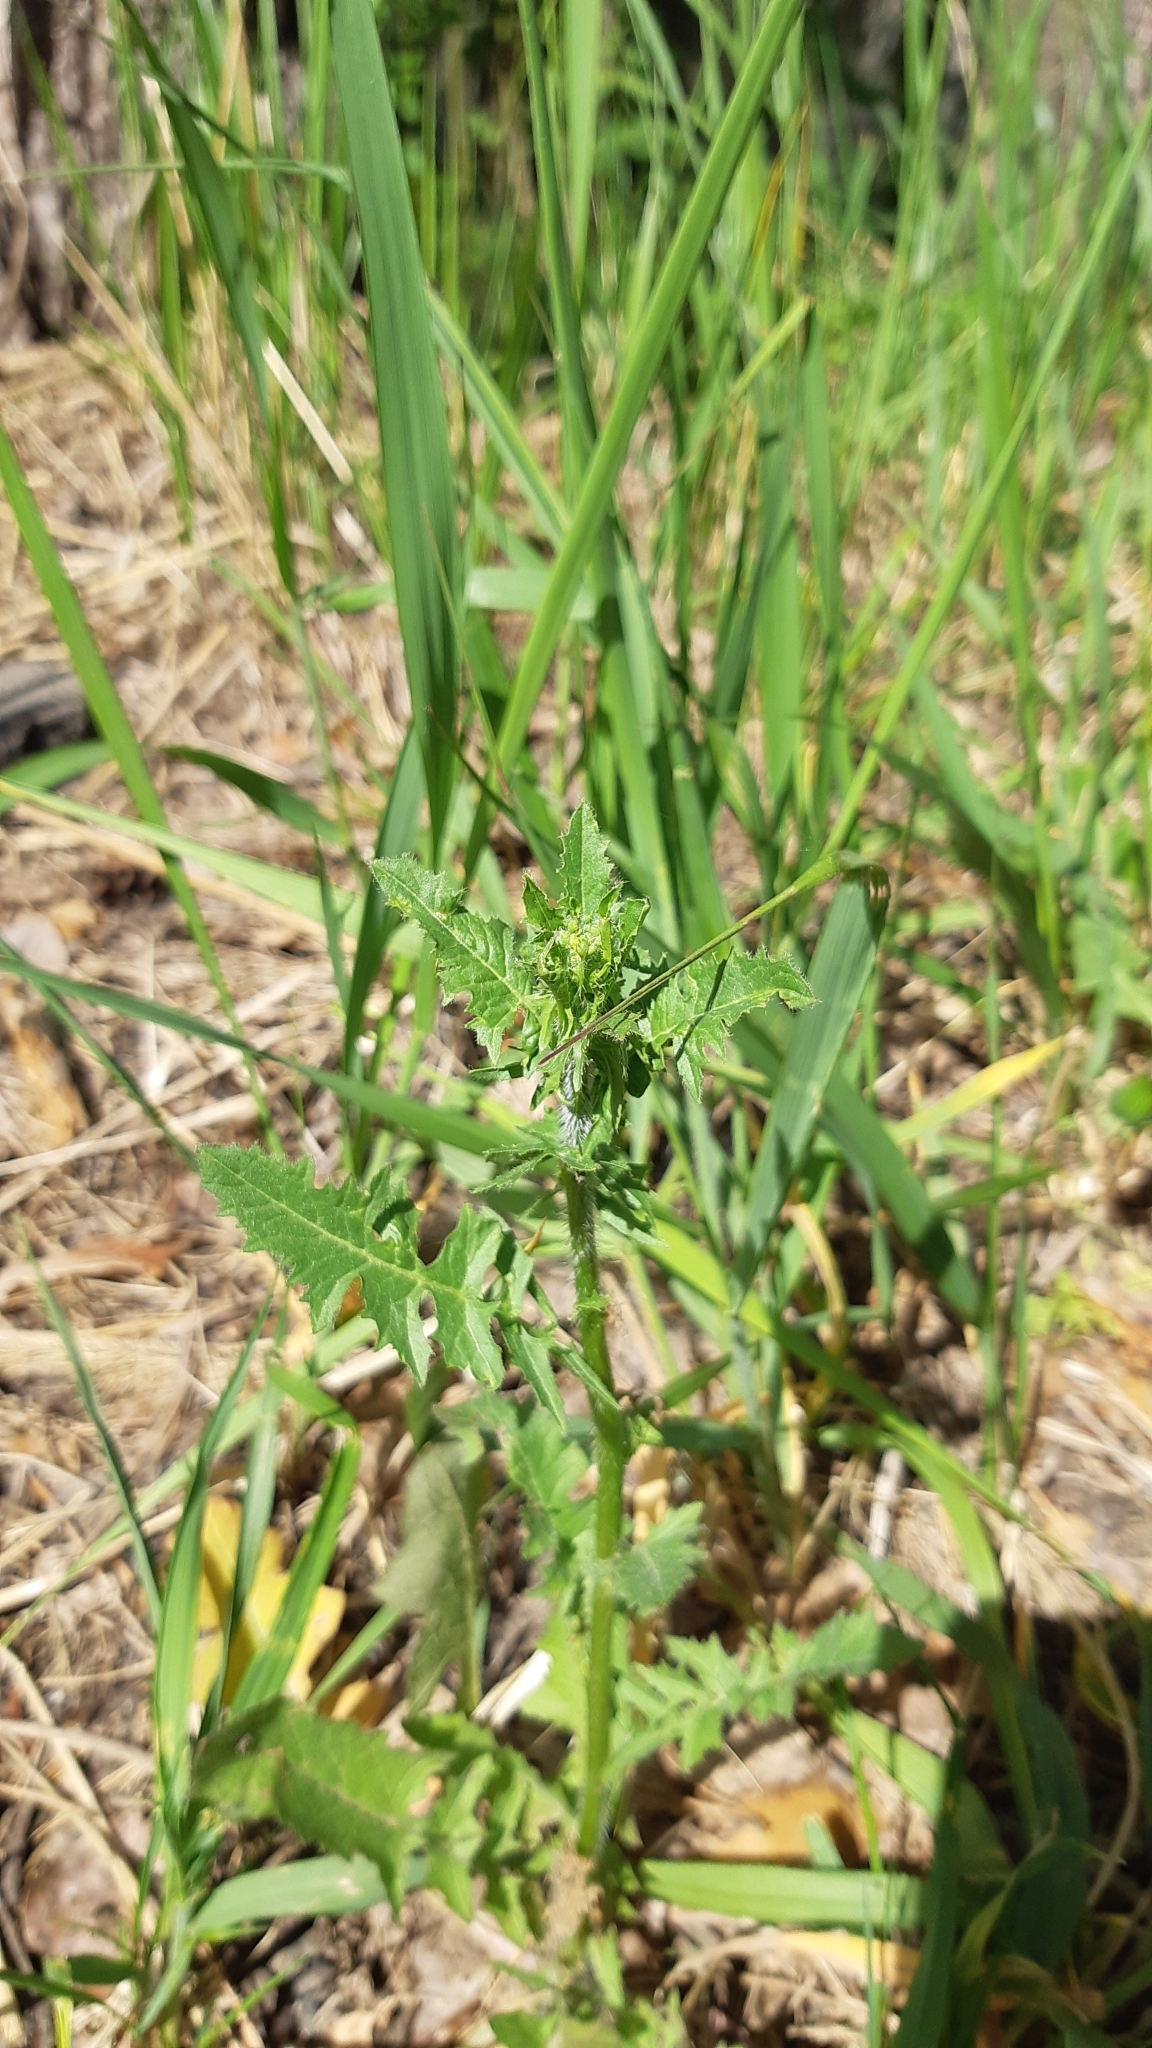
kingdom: Plantae
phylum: Tracheophyta
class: Magnoliopsida
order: Brassicales
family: Brassicaceae
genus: Sisymbrium
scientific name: Sisymbrium loeselii
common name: False london-rocket
